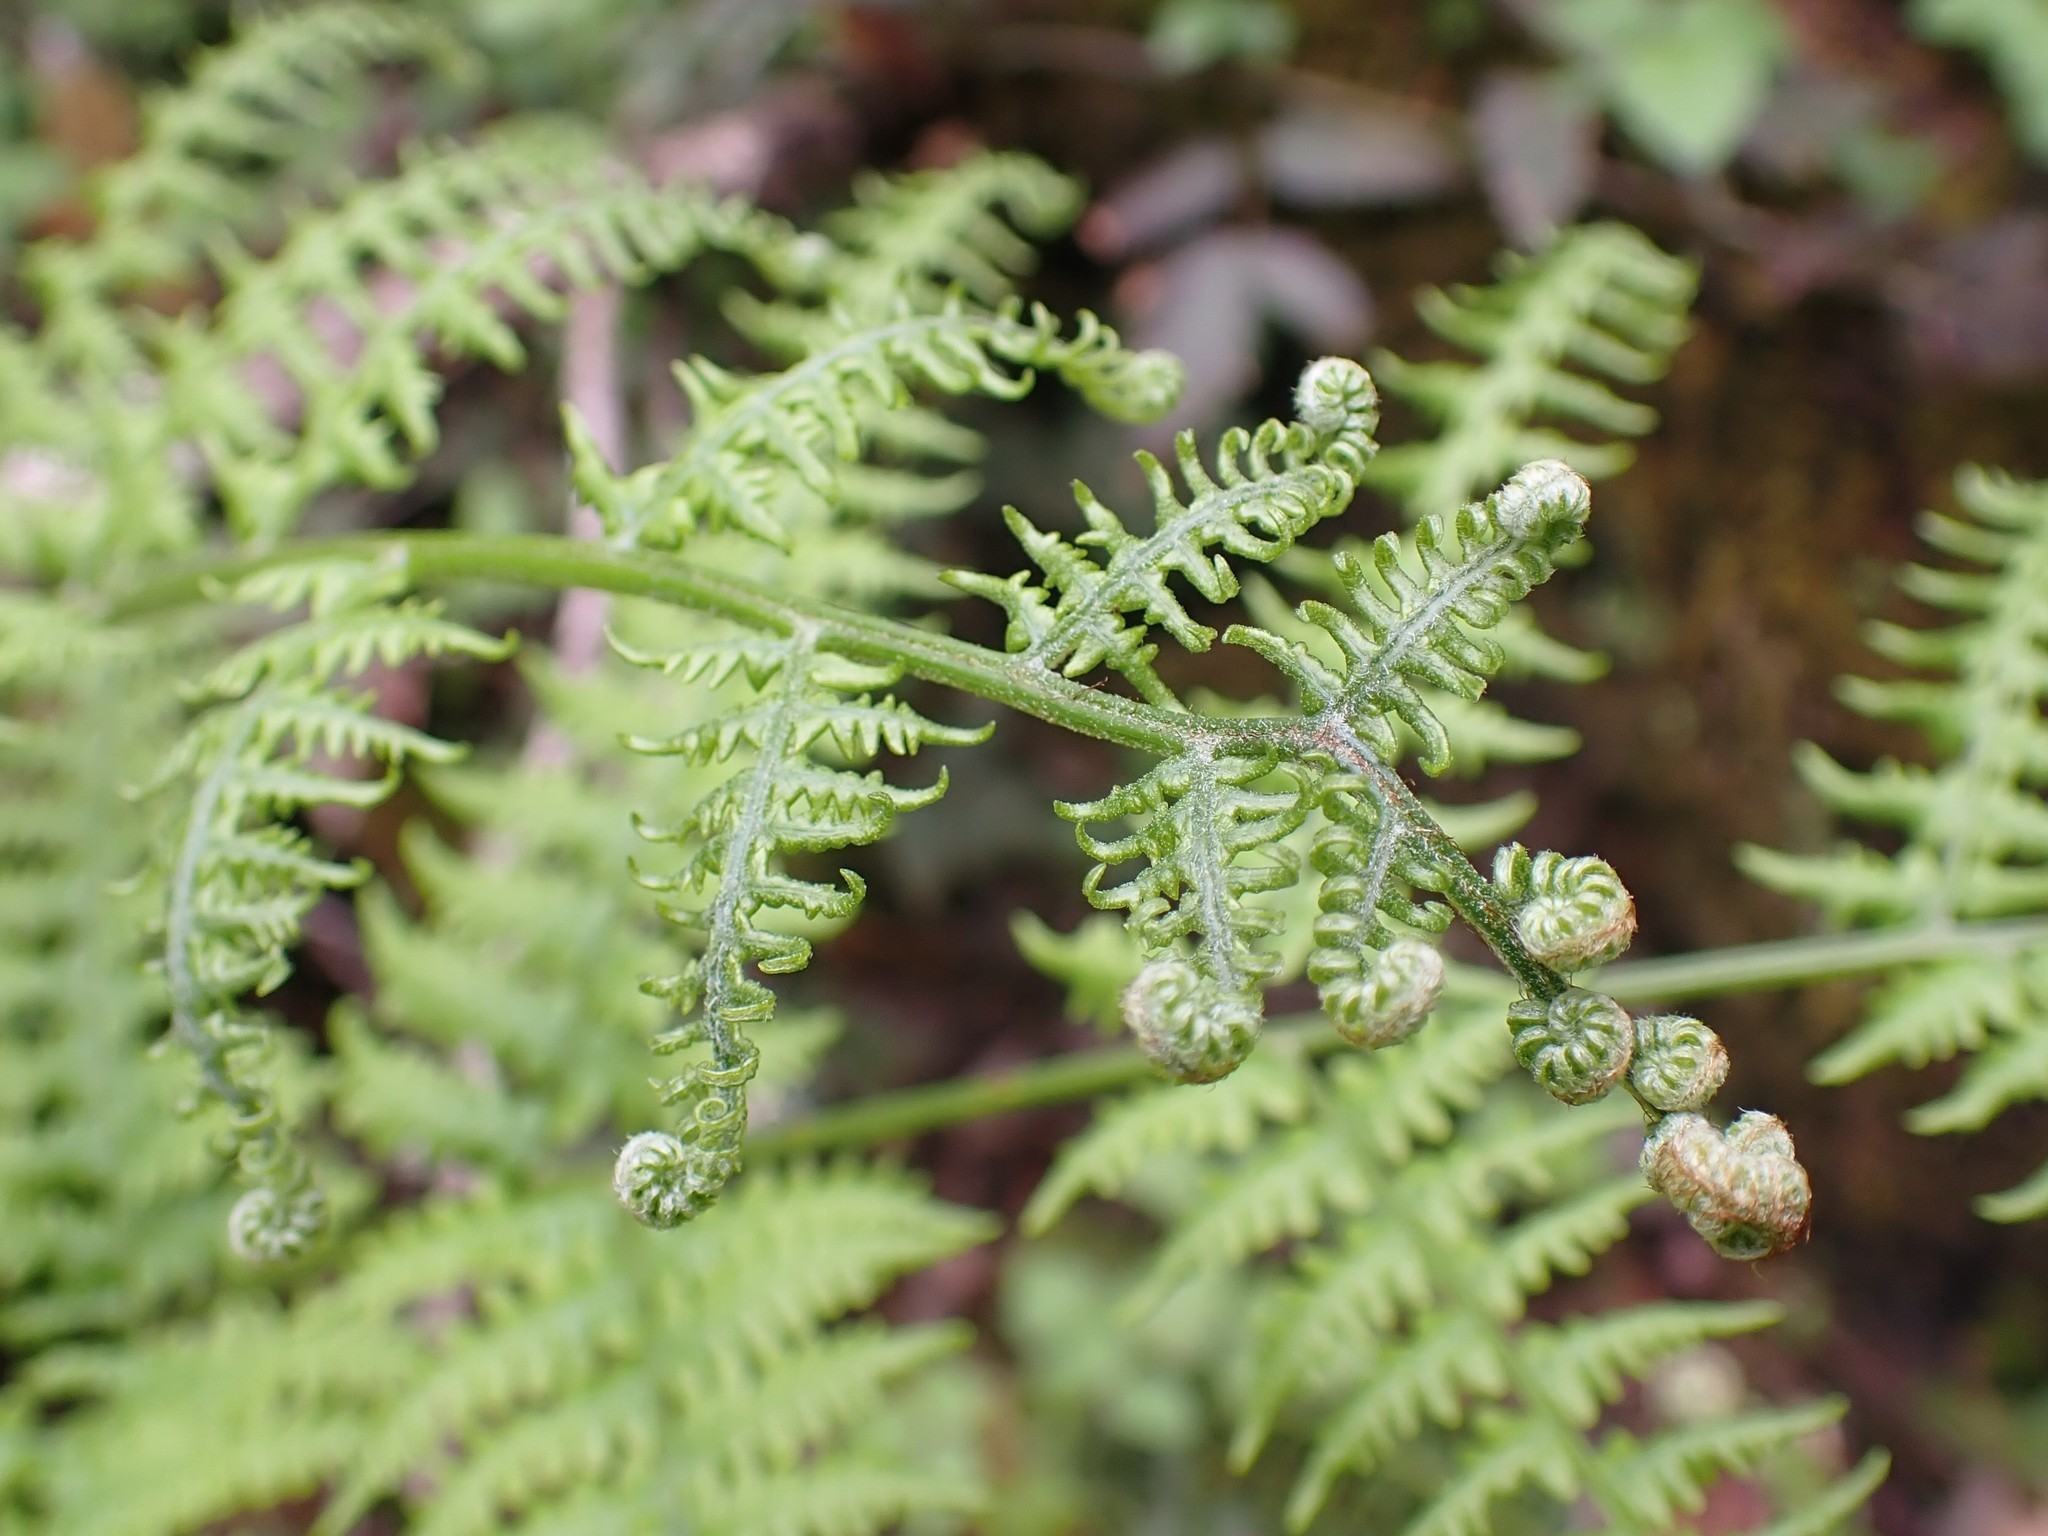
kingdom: Plantae
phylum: Tracheophyta
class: Polypodiopsida
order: Polypodiales
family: Dennstaedtiaceae
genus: Pteridium
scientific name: Pteridium aquilinum
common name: Bracken
